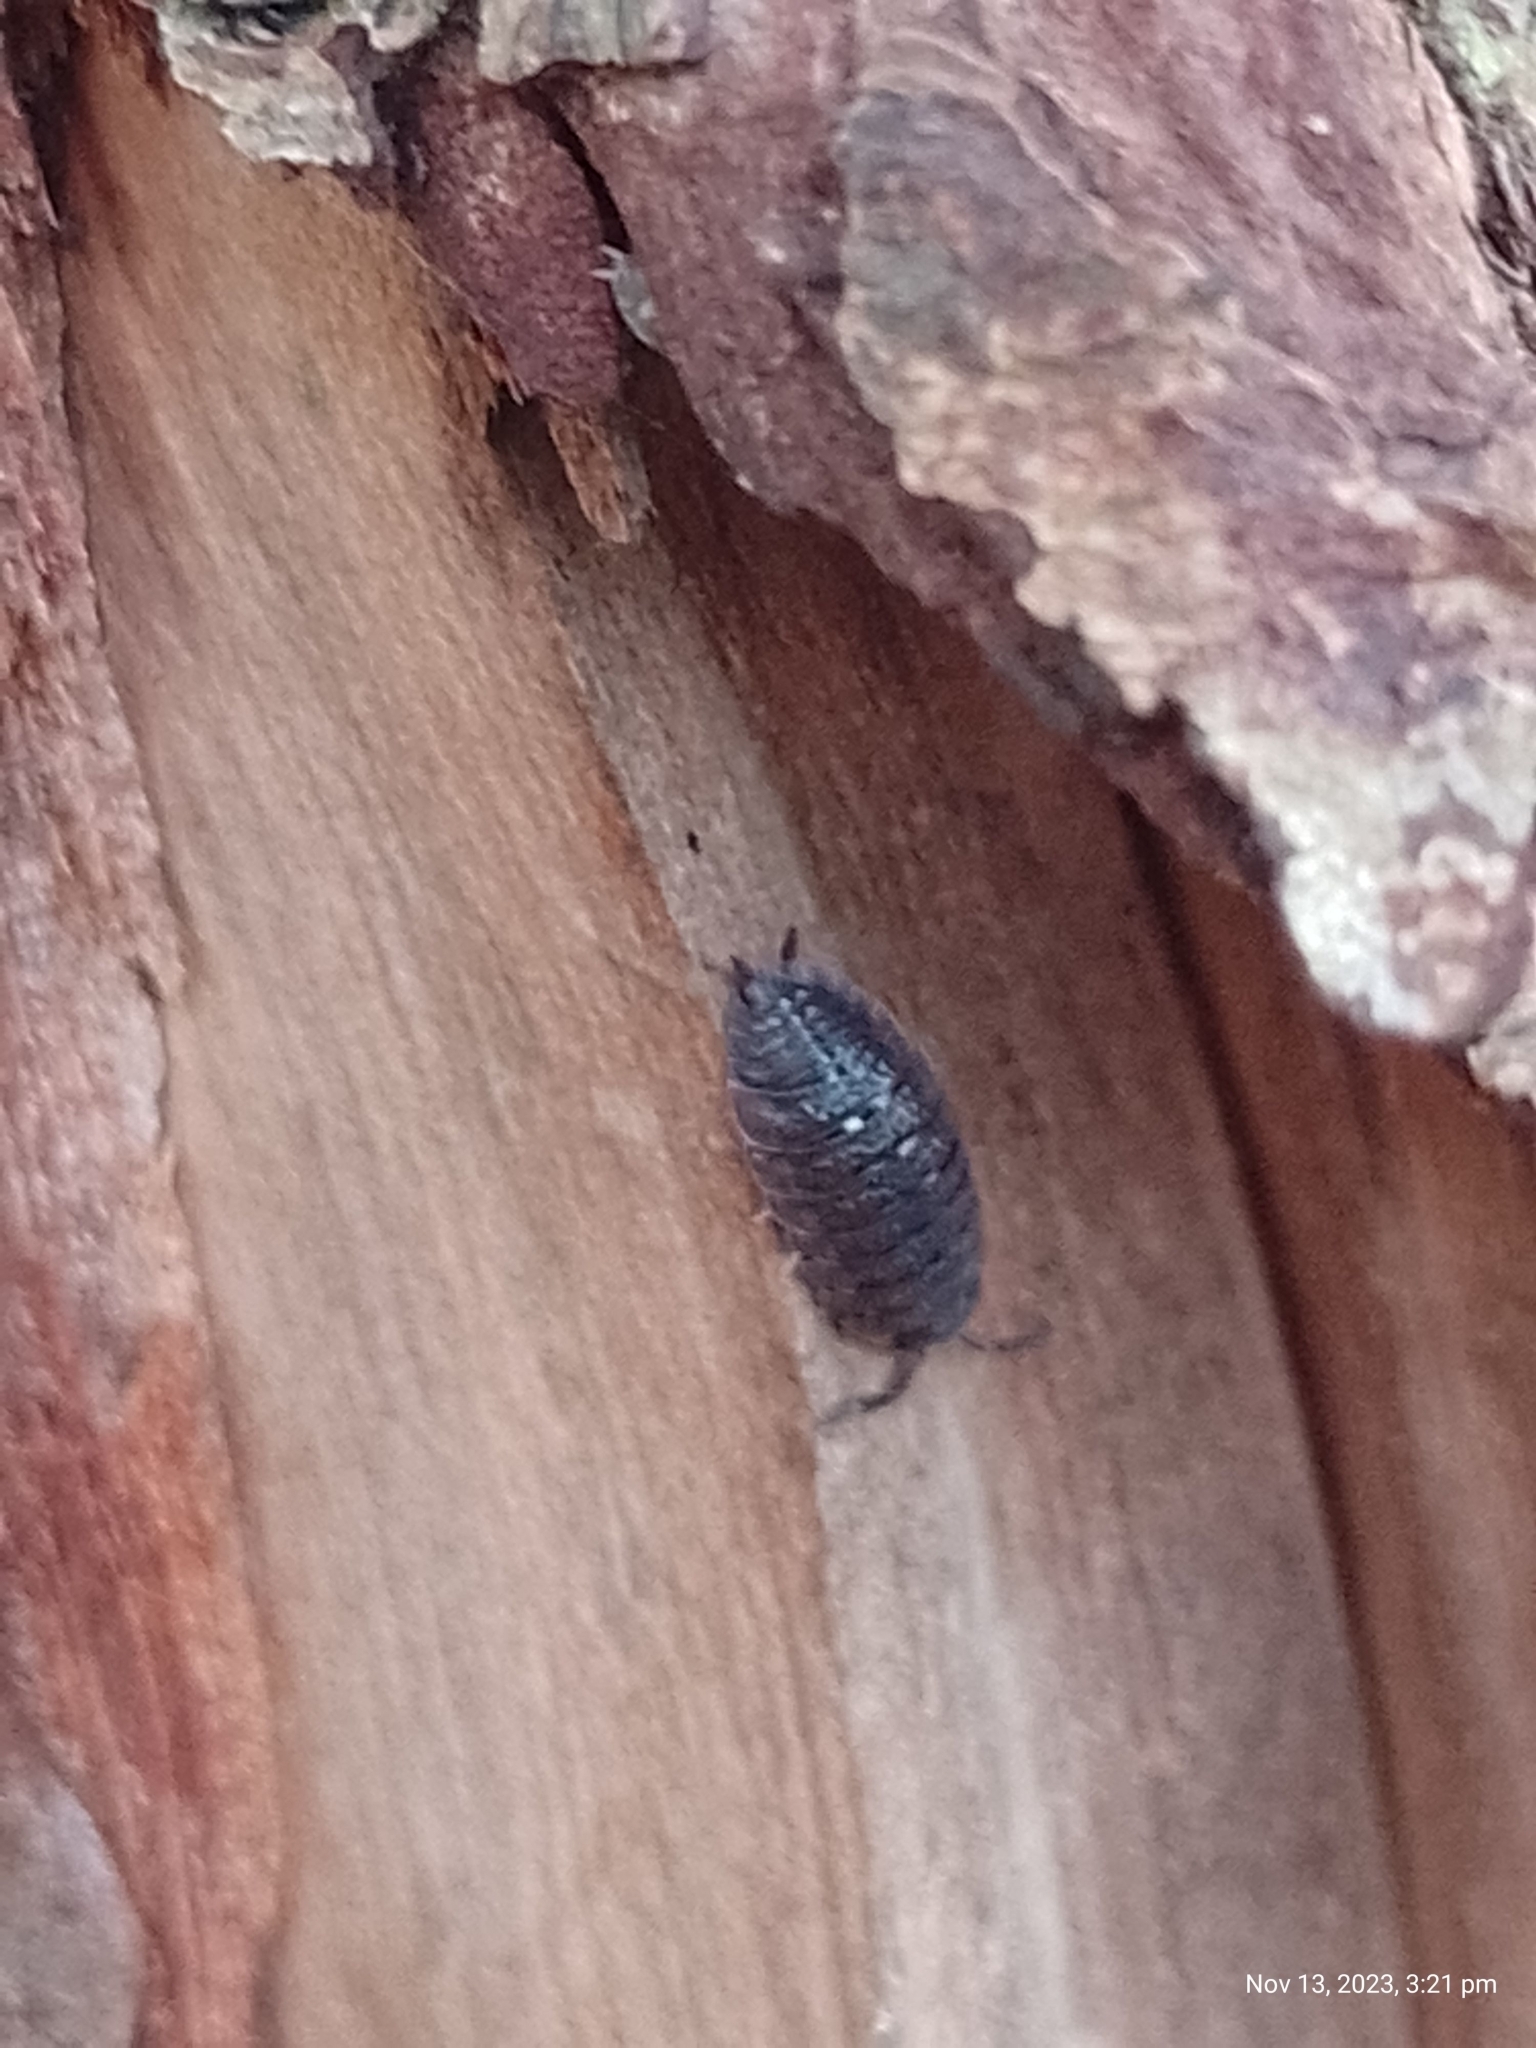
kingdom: Animalia
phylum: Arthropoda
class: Malacostraca
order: Isopoda
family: Porcellionidae
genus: Porcellio
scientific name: Porcellio scaber
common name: Common rough woodlouse
